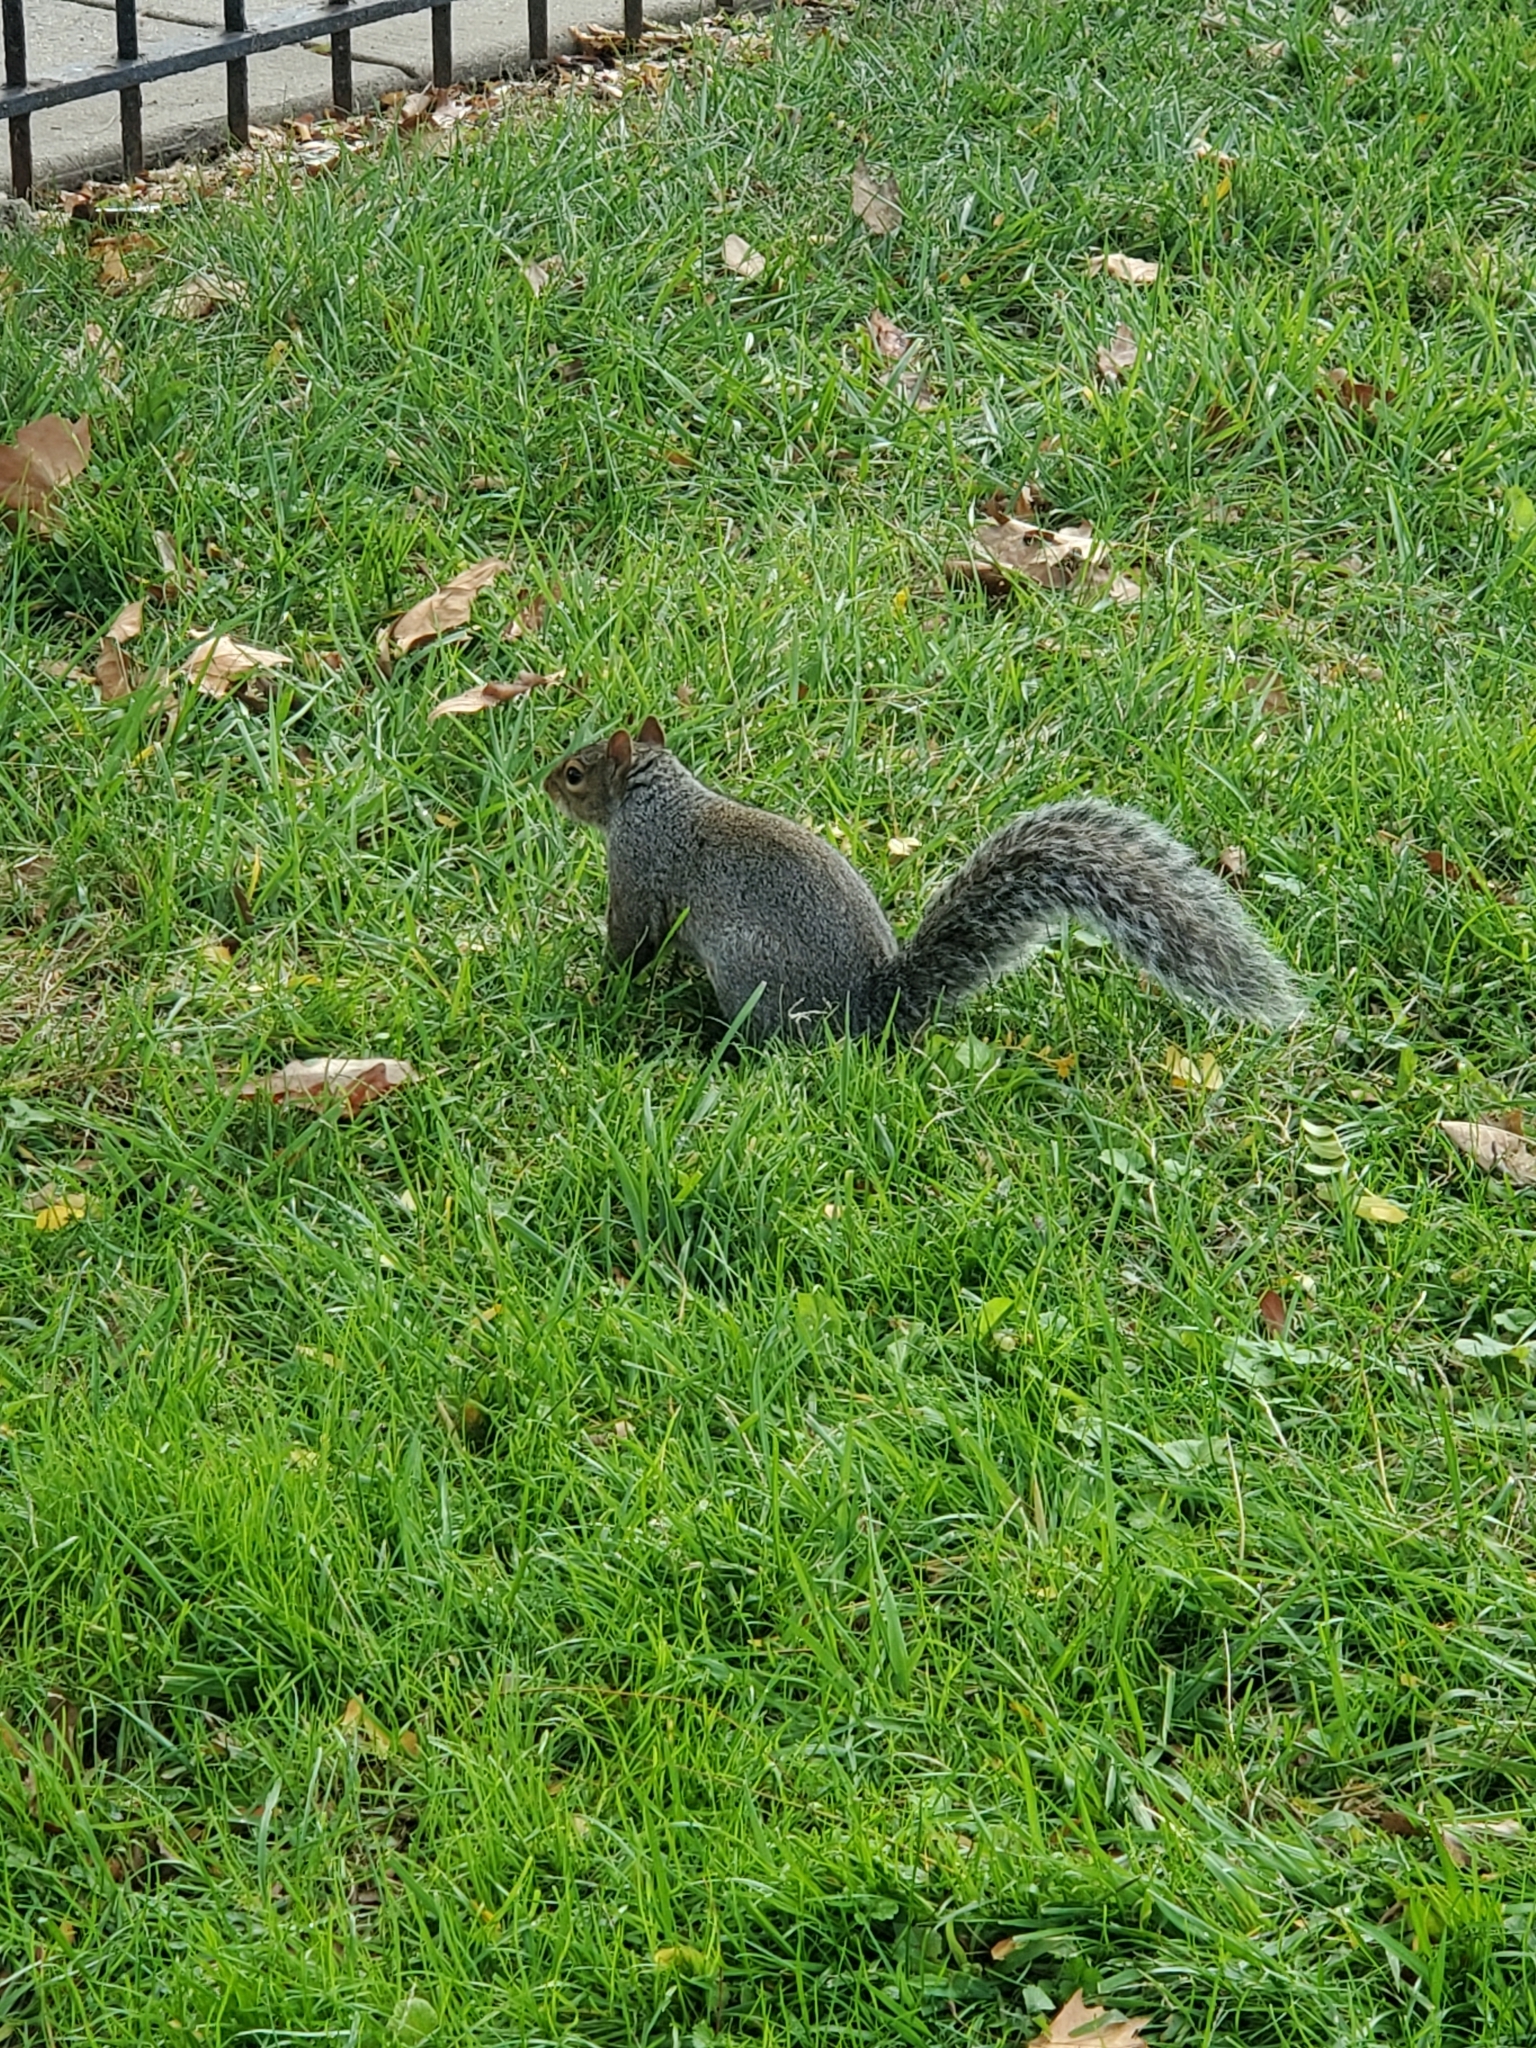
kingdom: Animalia
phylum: Chordata
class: Mammalia
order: Rodentia
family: Sciuridae
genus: Sciurus
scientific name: Sciurus carolinensis
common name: Eastern gray squirrel
